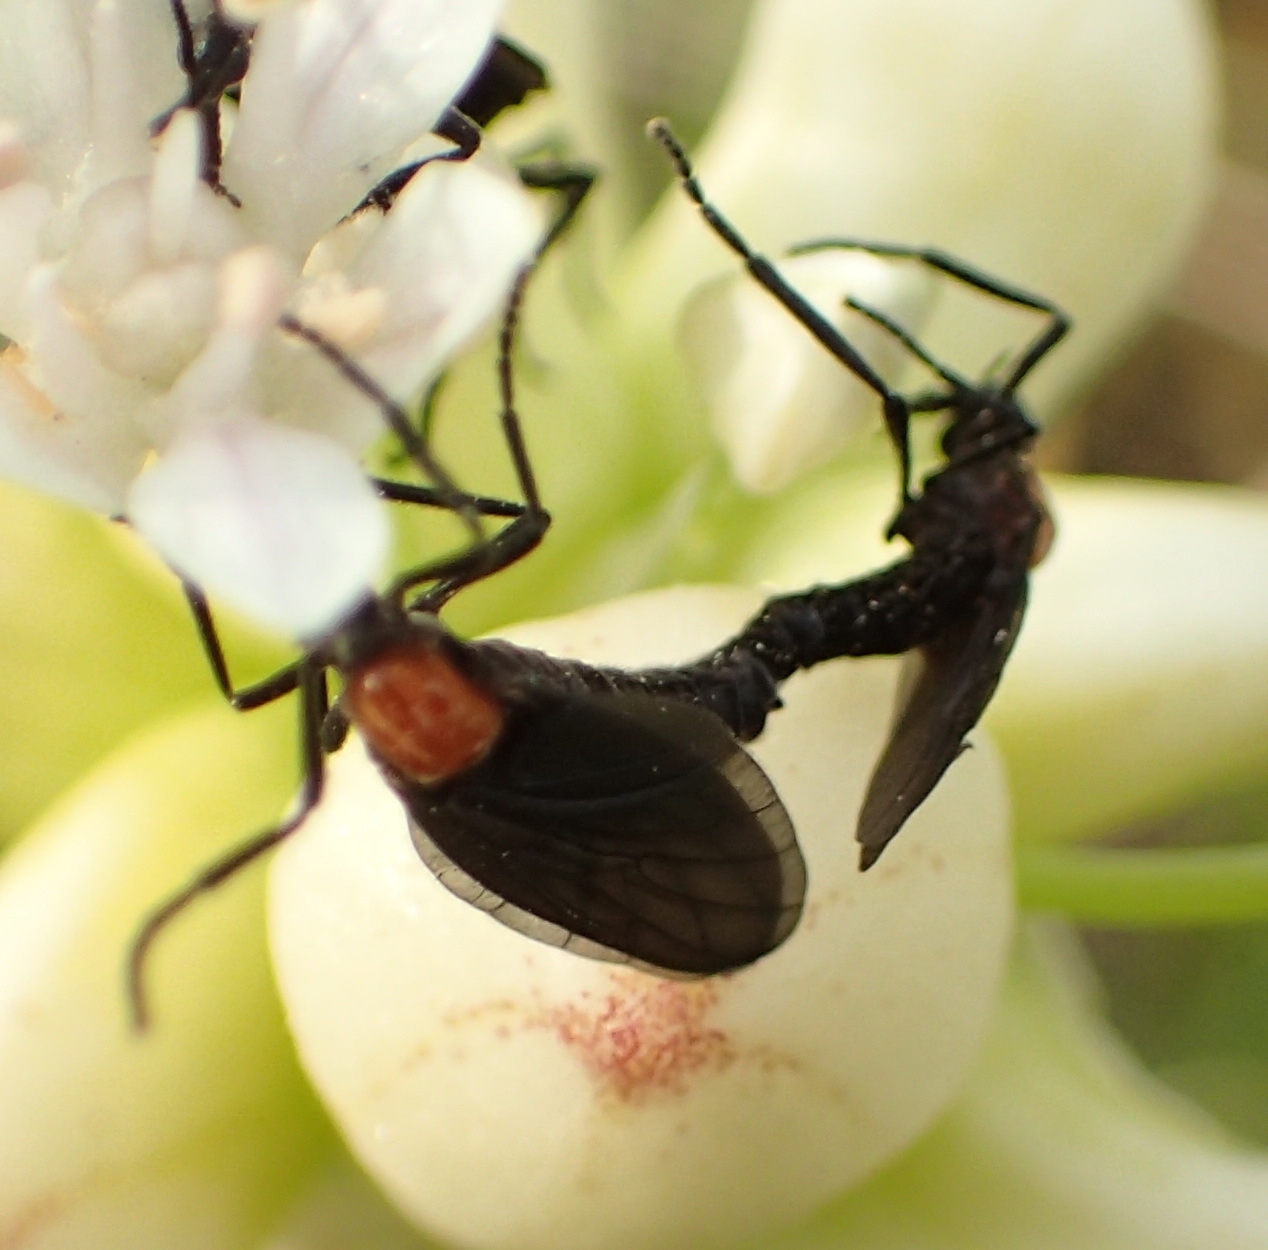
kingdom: Animalia
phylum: Arthropoda
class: Insecta
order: Diptera
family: Bibionidae
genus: Plecia
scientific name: Plecia nearctica
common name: March fly
